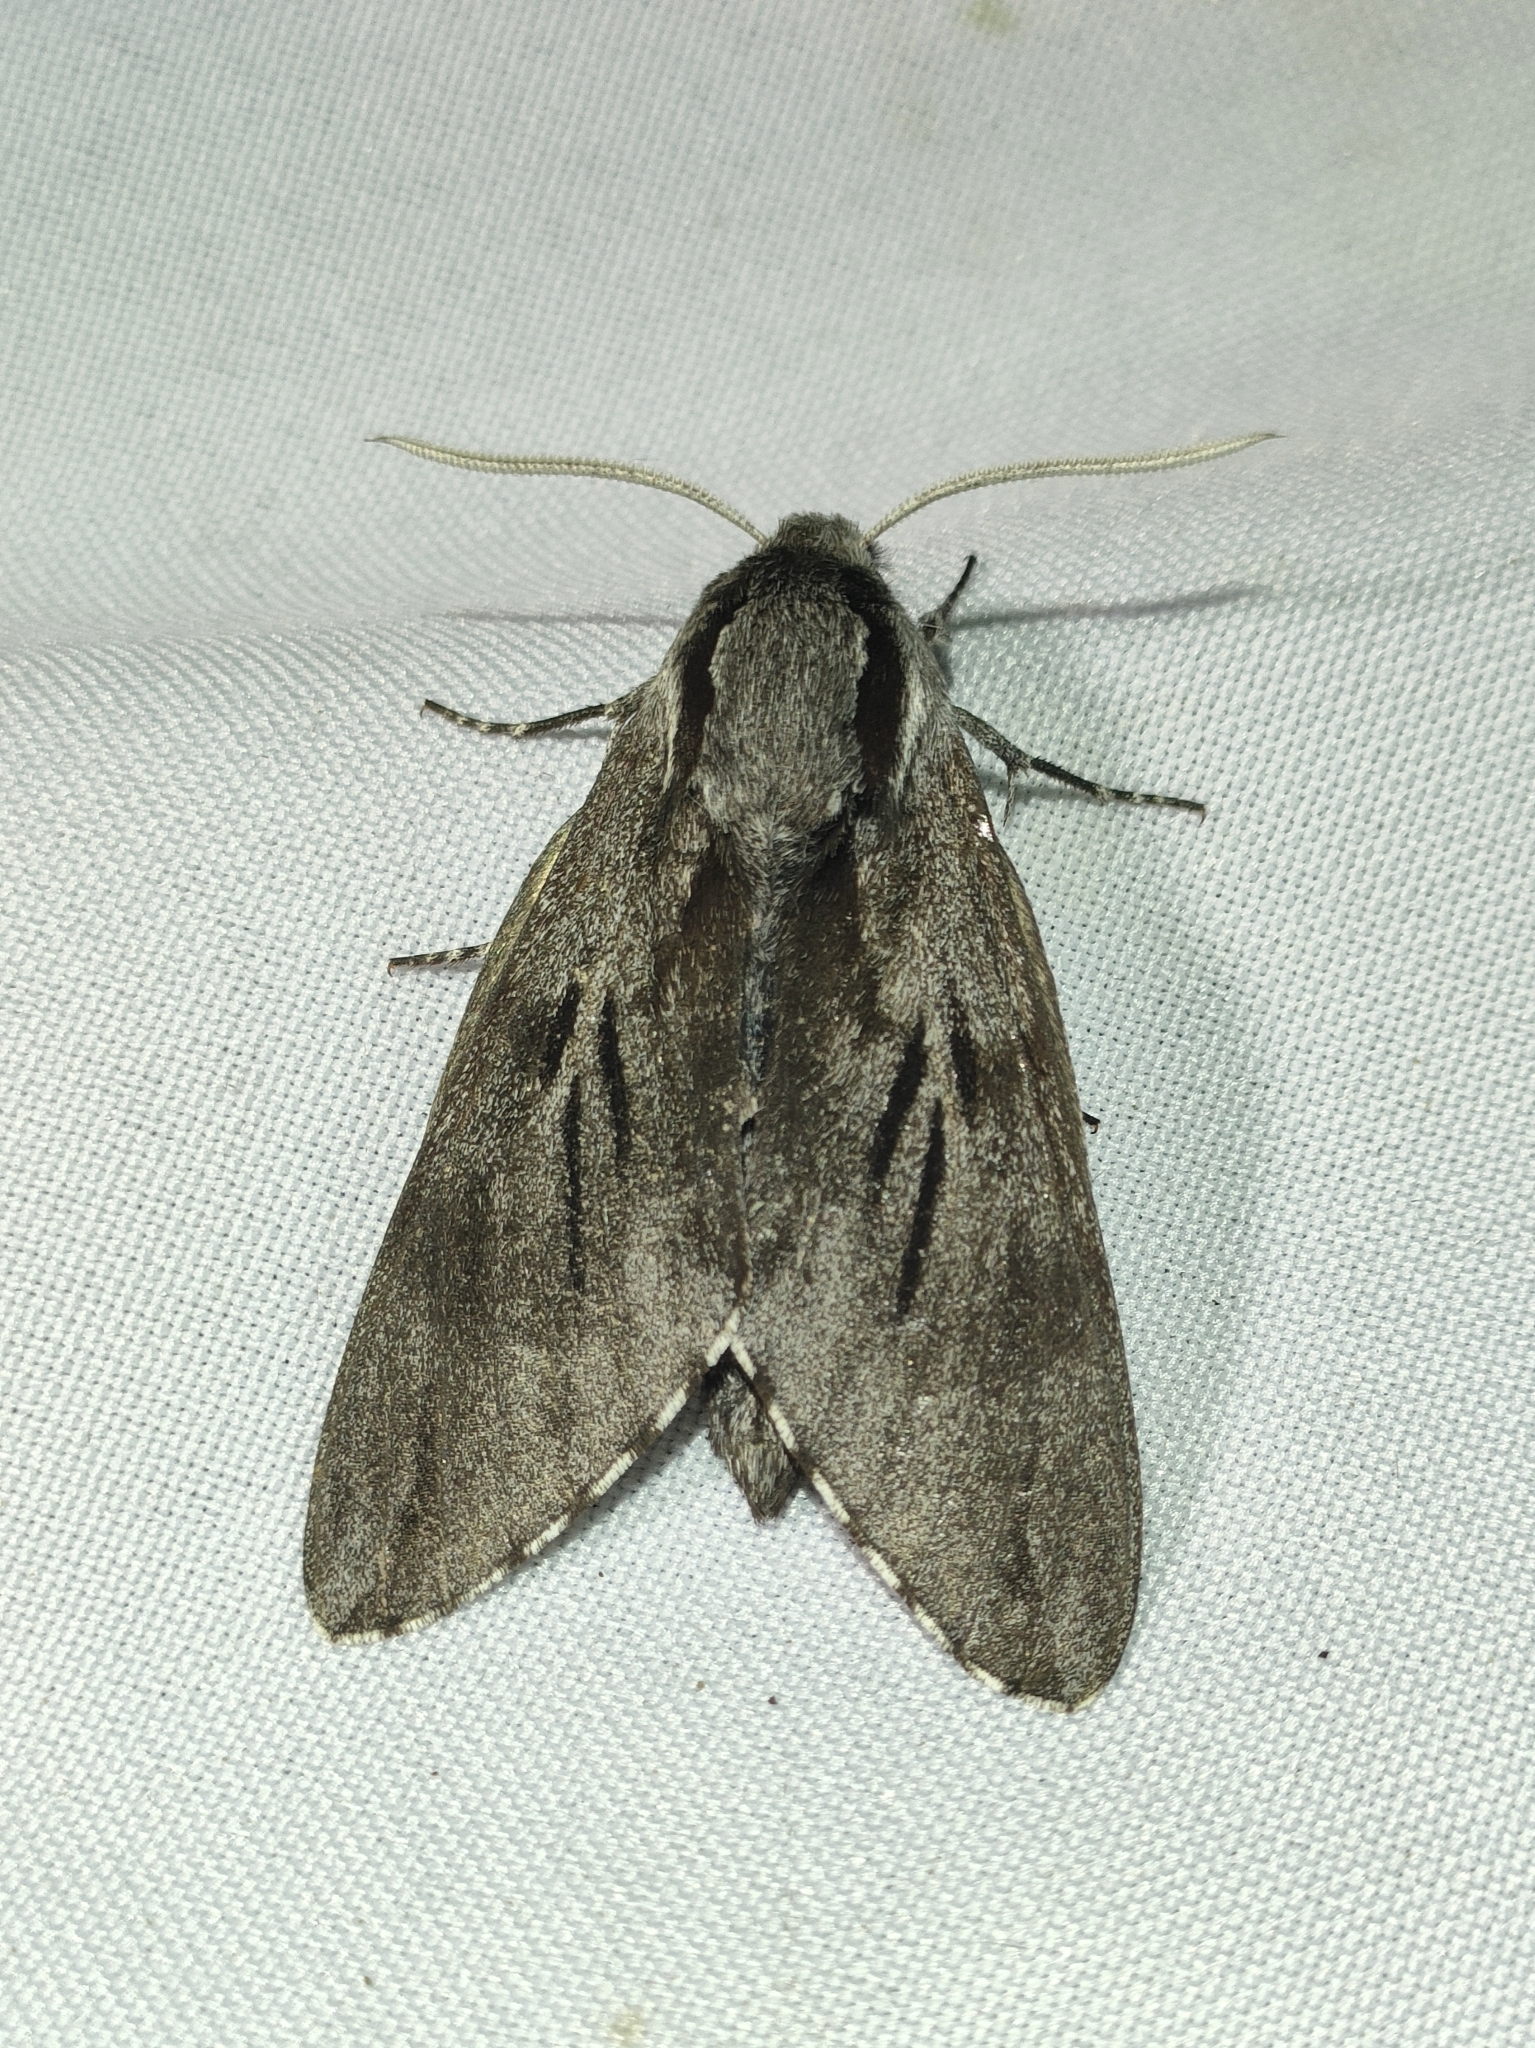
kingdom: Animalia
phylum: Arthropoda
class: Insecta
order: Lepidoptera
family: Sphingidae
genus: Sphinx
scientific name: Sphinx maurorum
